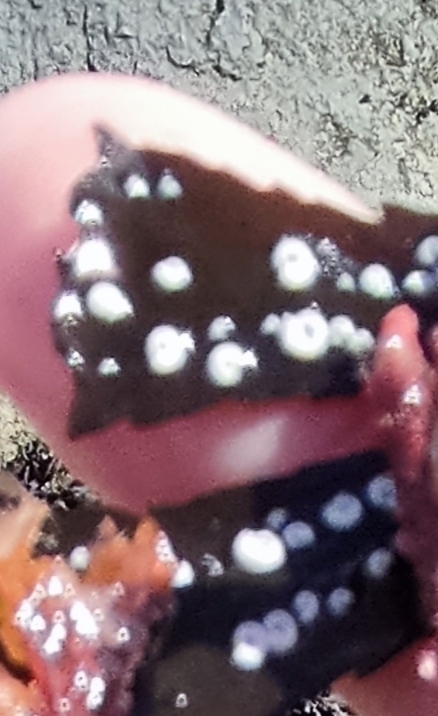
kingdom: Animalia
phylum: Annelida
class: Polychaeta
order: Sabellida
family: Serpulidae
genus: Spirorbis
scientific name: Spirorbis spirorbis
